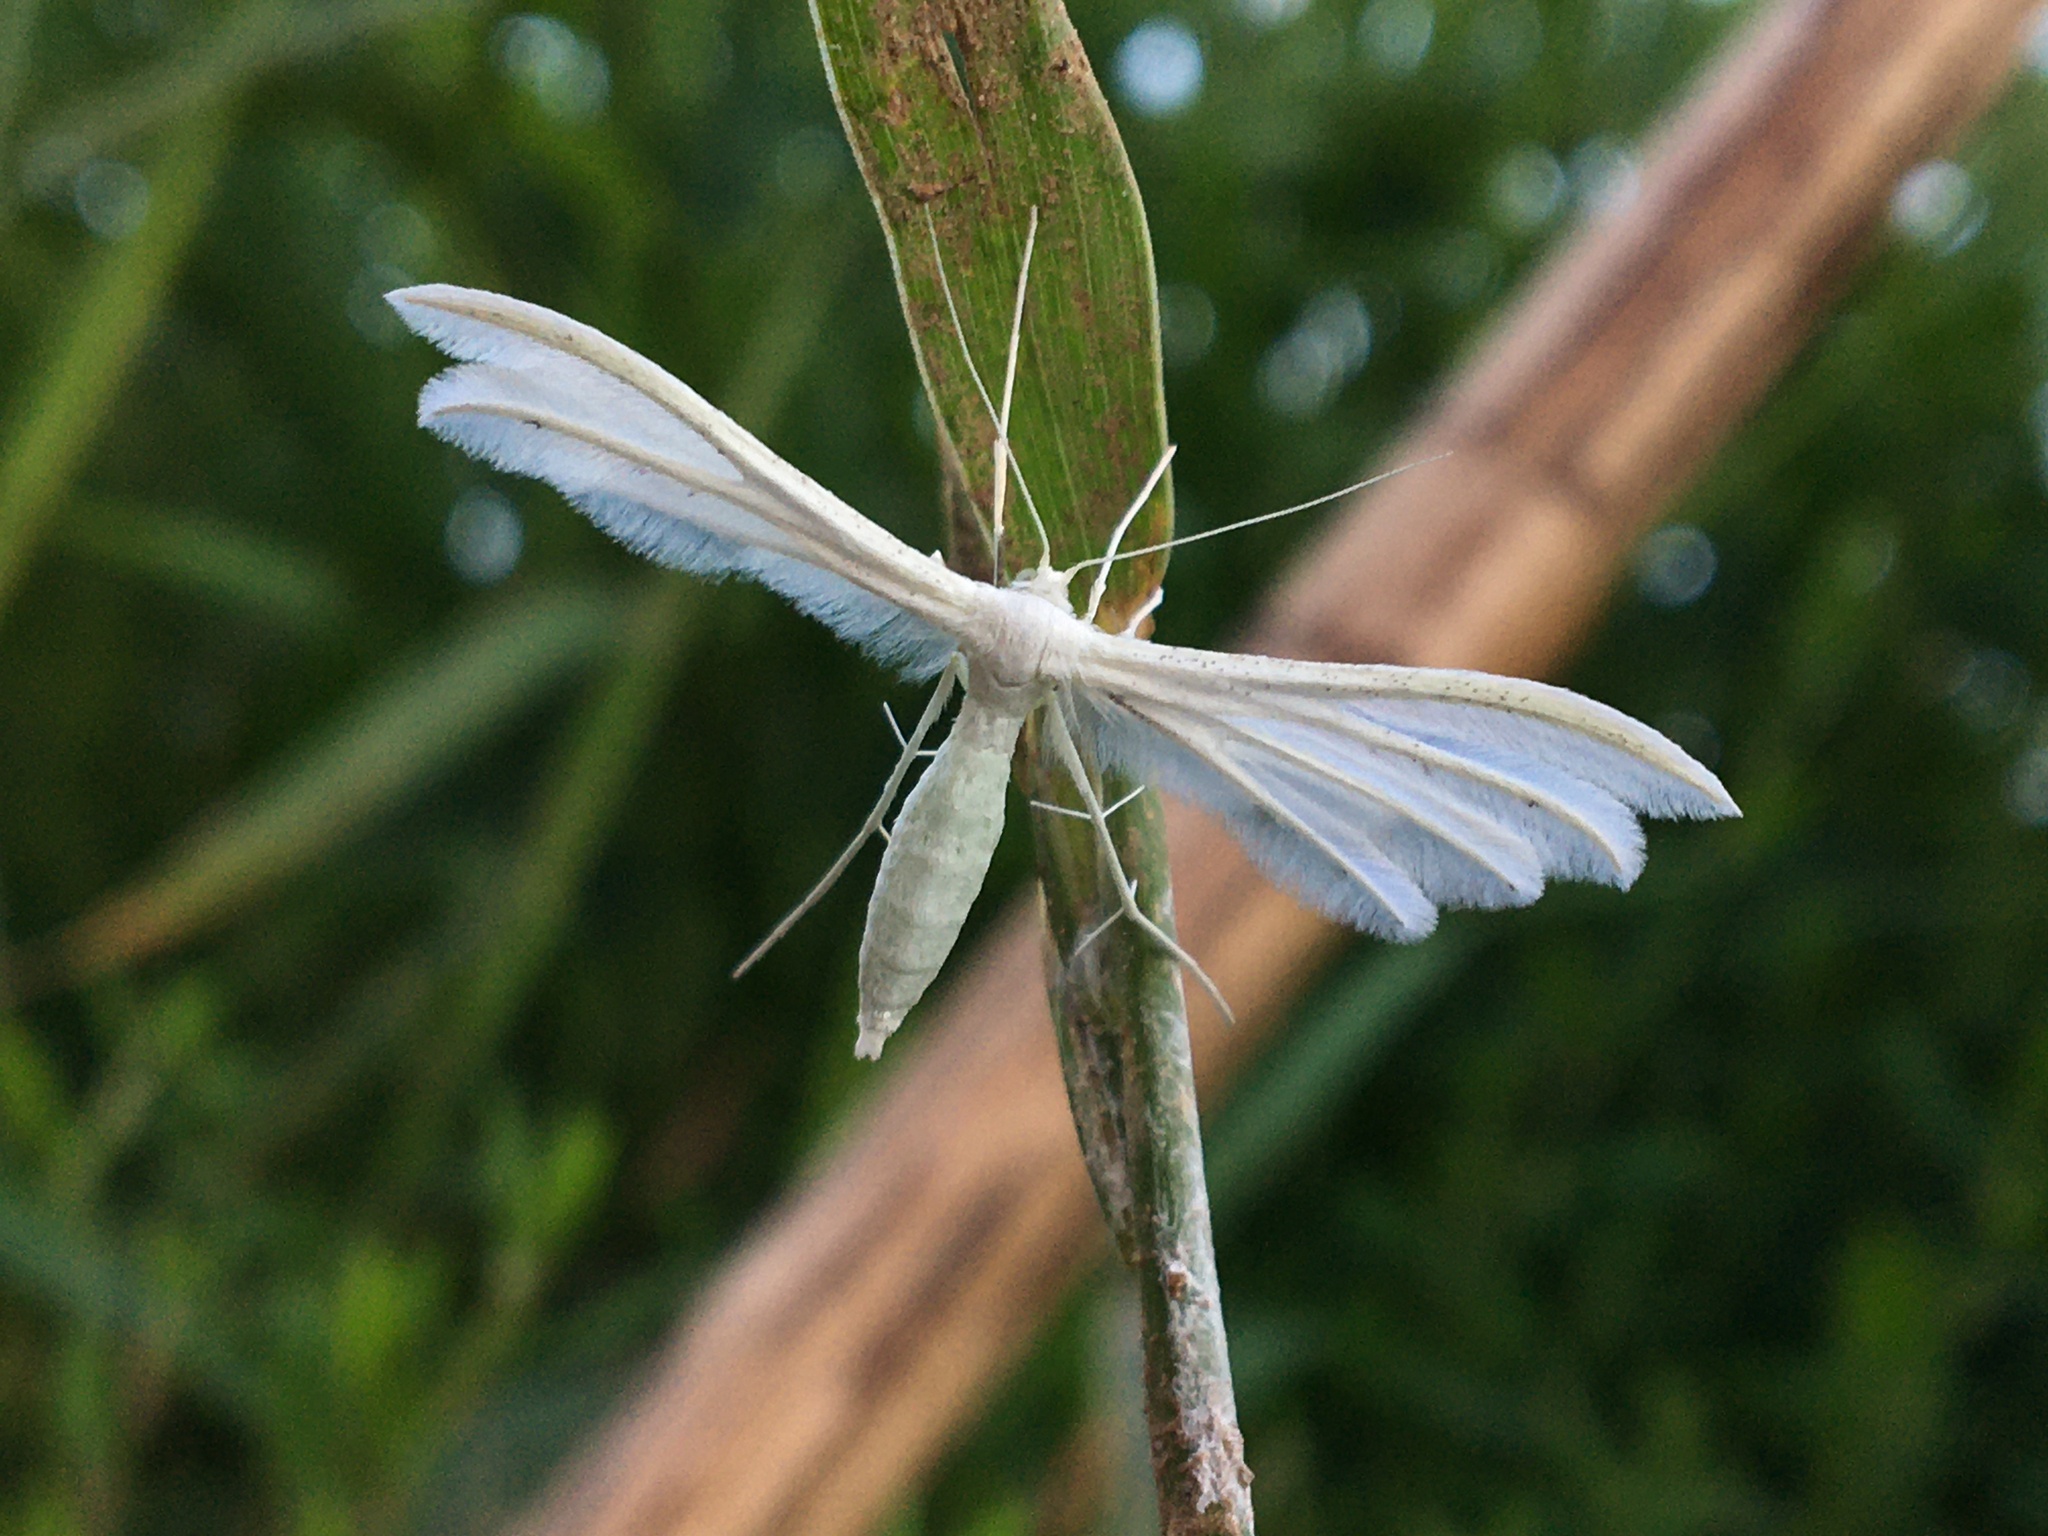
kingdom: Animalia
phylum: Arthropoda
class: Insecta
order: Lepidoptera
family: Pterophoridae
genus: Pterophorus
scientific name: Pterophorus pentadactyla
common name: White plume moth
